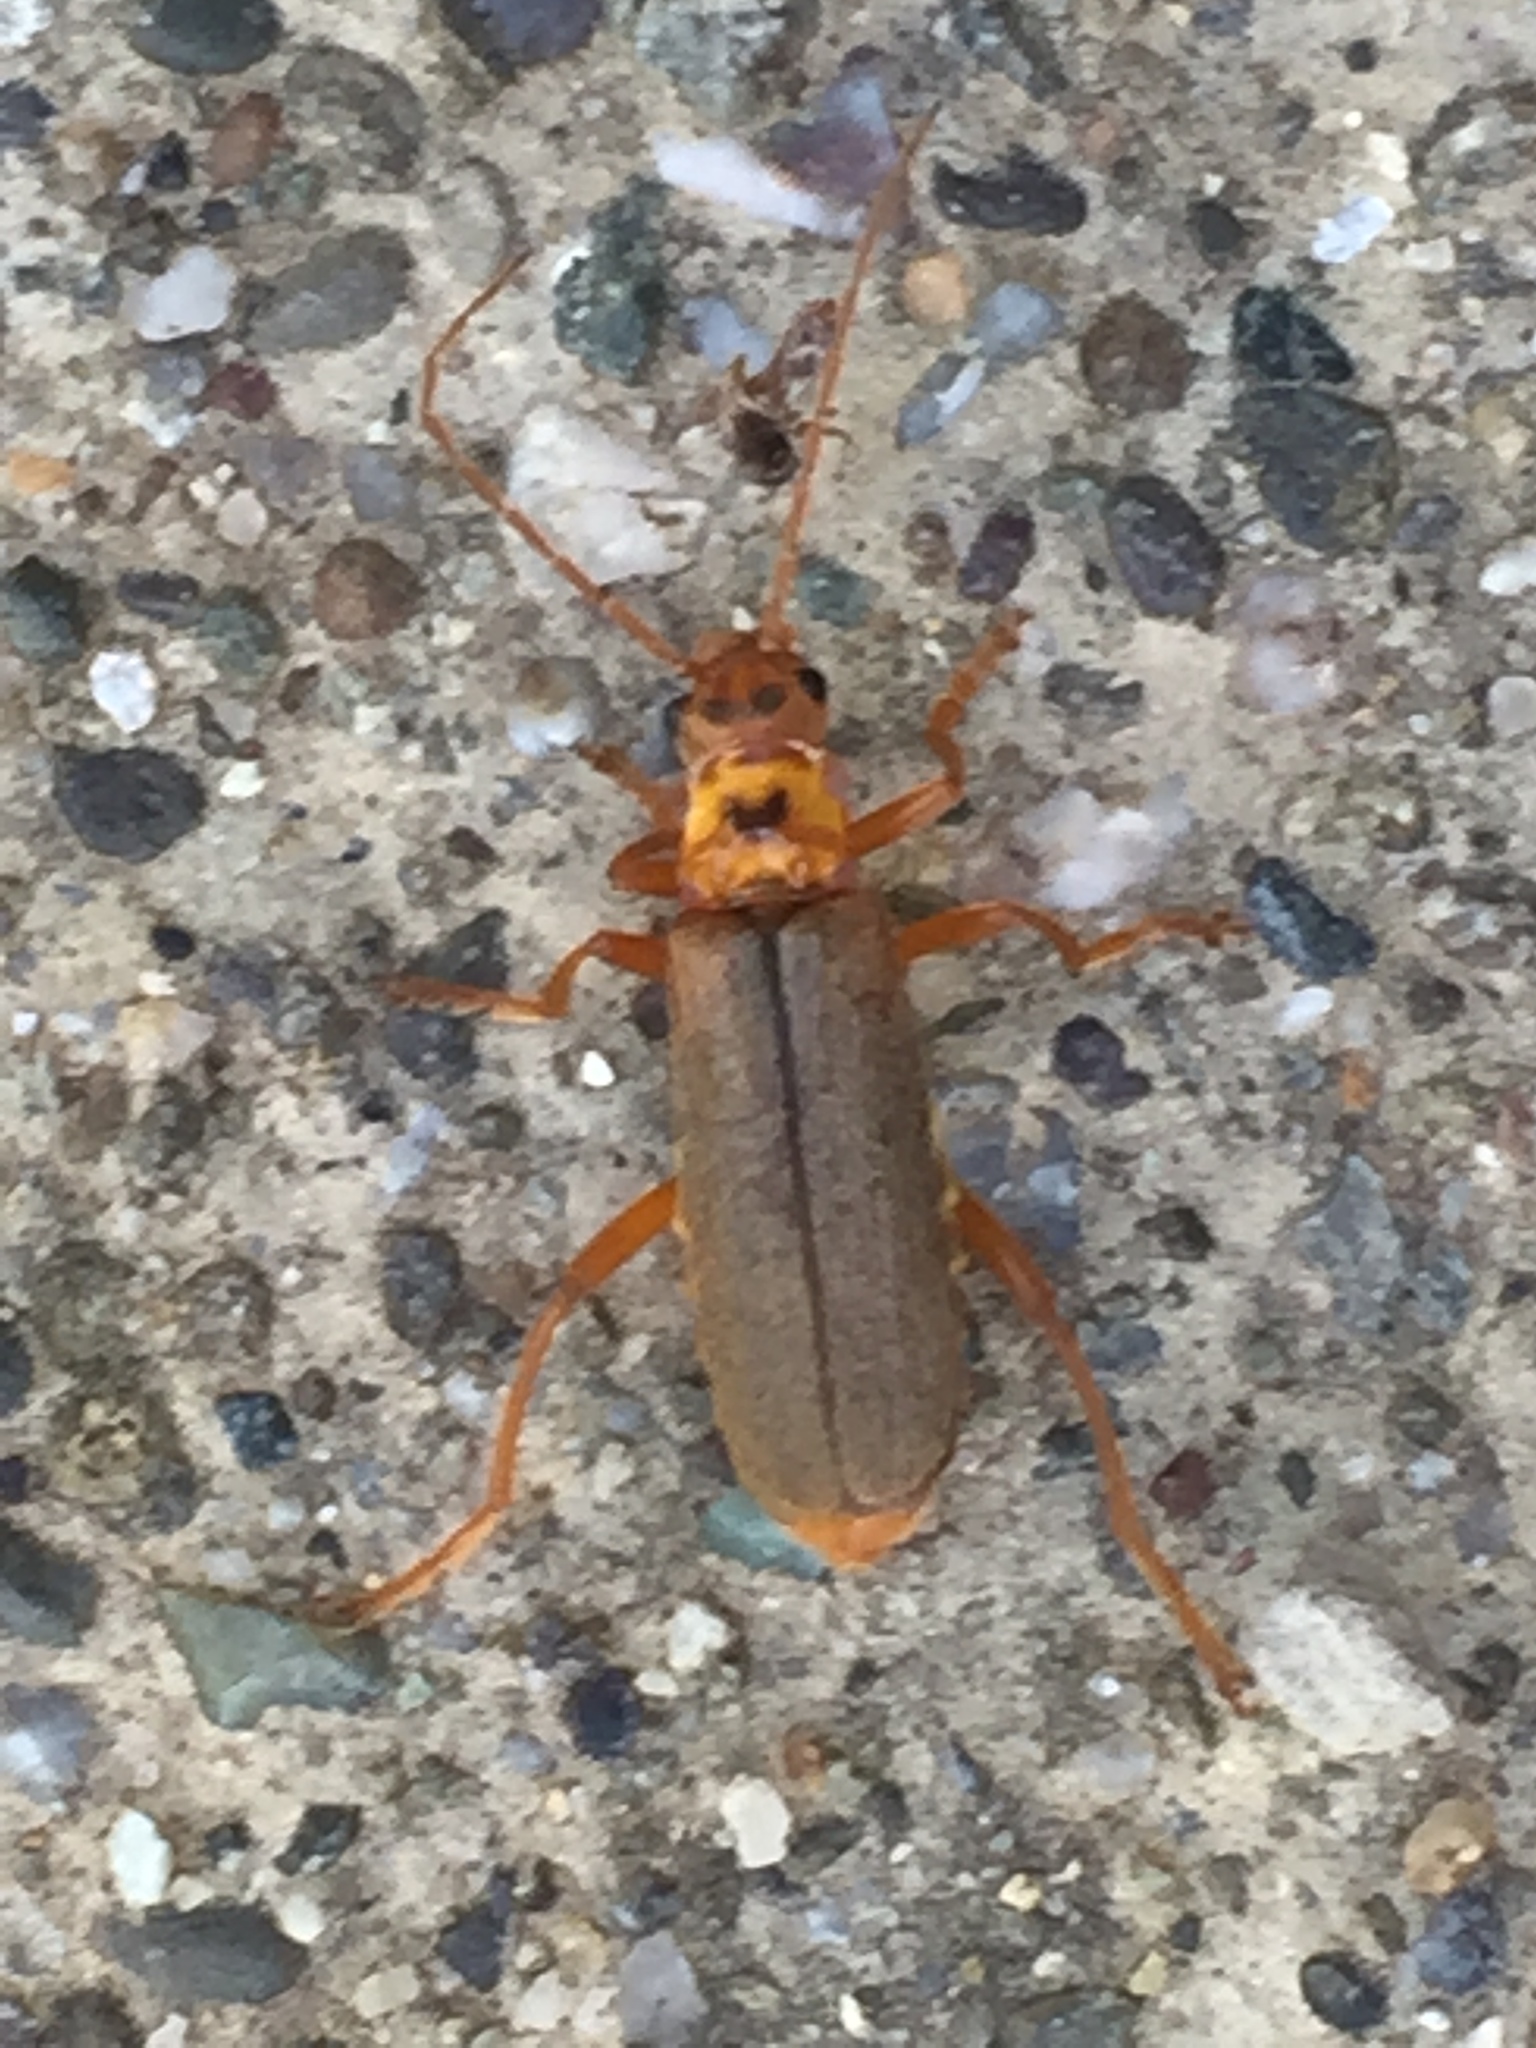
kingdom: Animalia
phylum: Arthropoda
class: Insecta
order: Coleoptera
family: Cantharidae
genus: Cultellunguis
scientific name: Cultellunguis americanus
